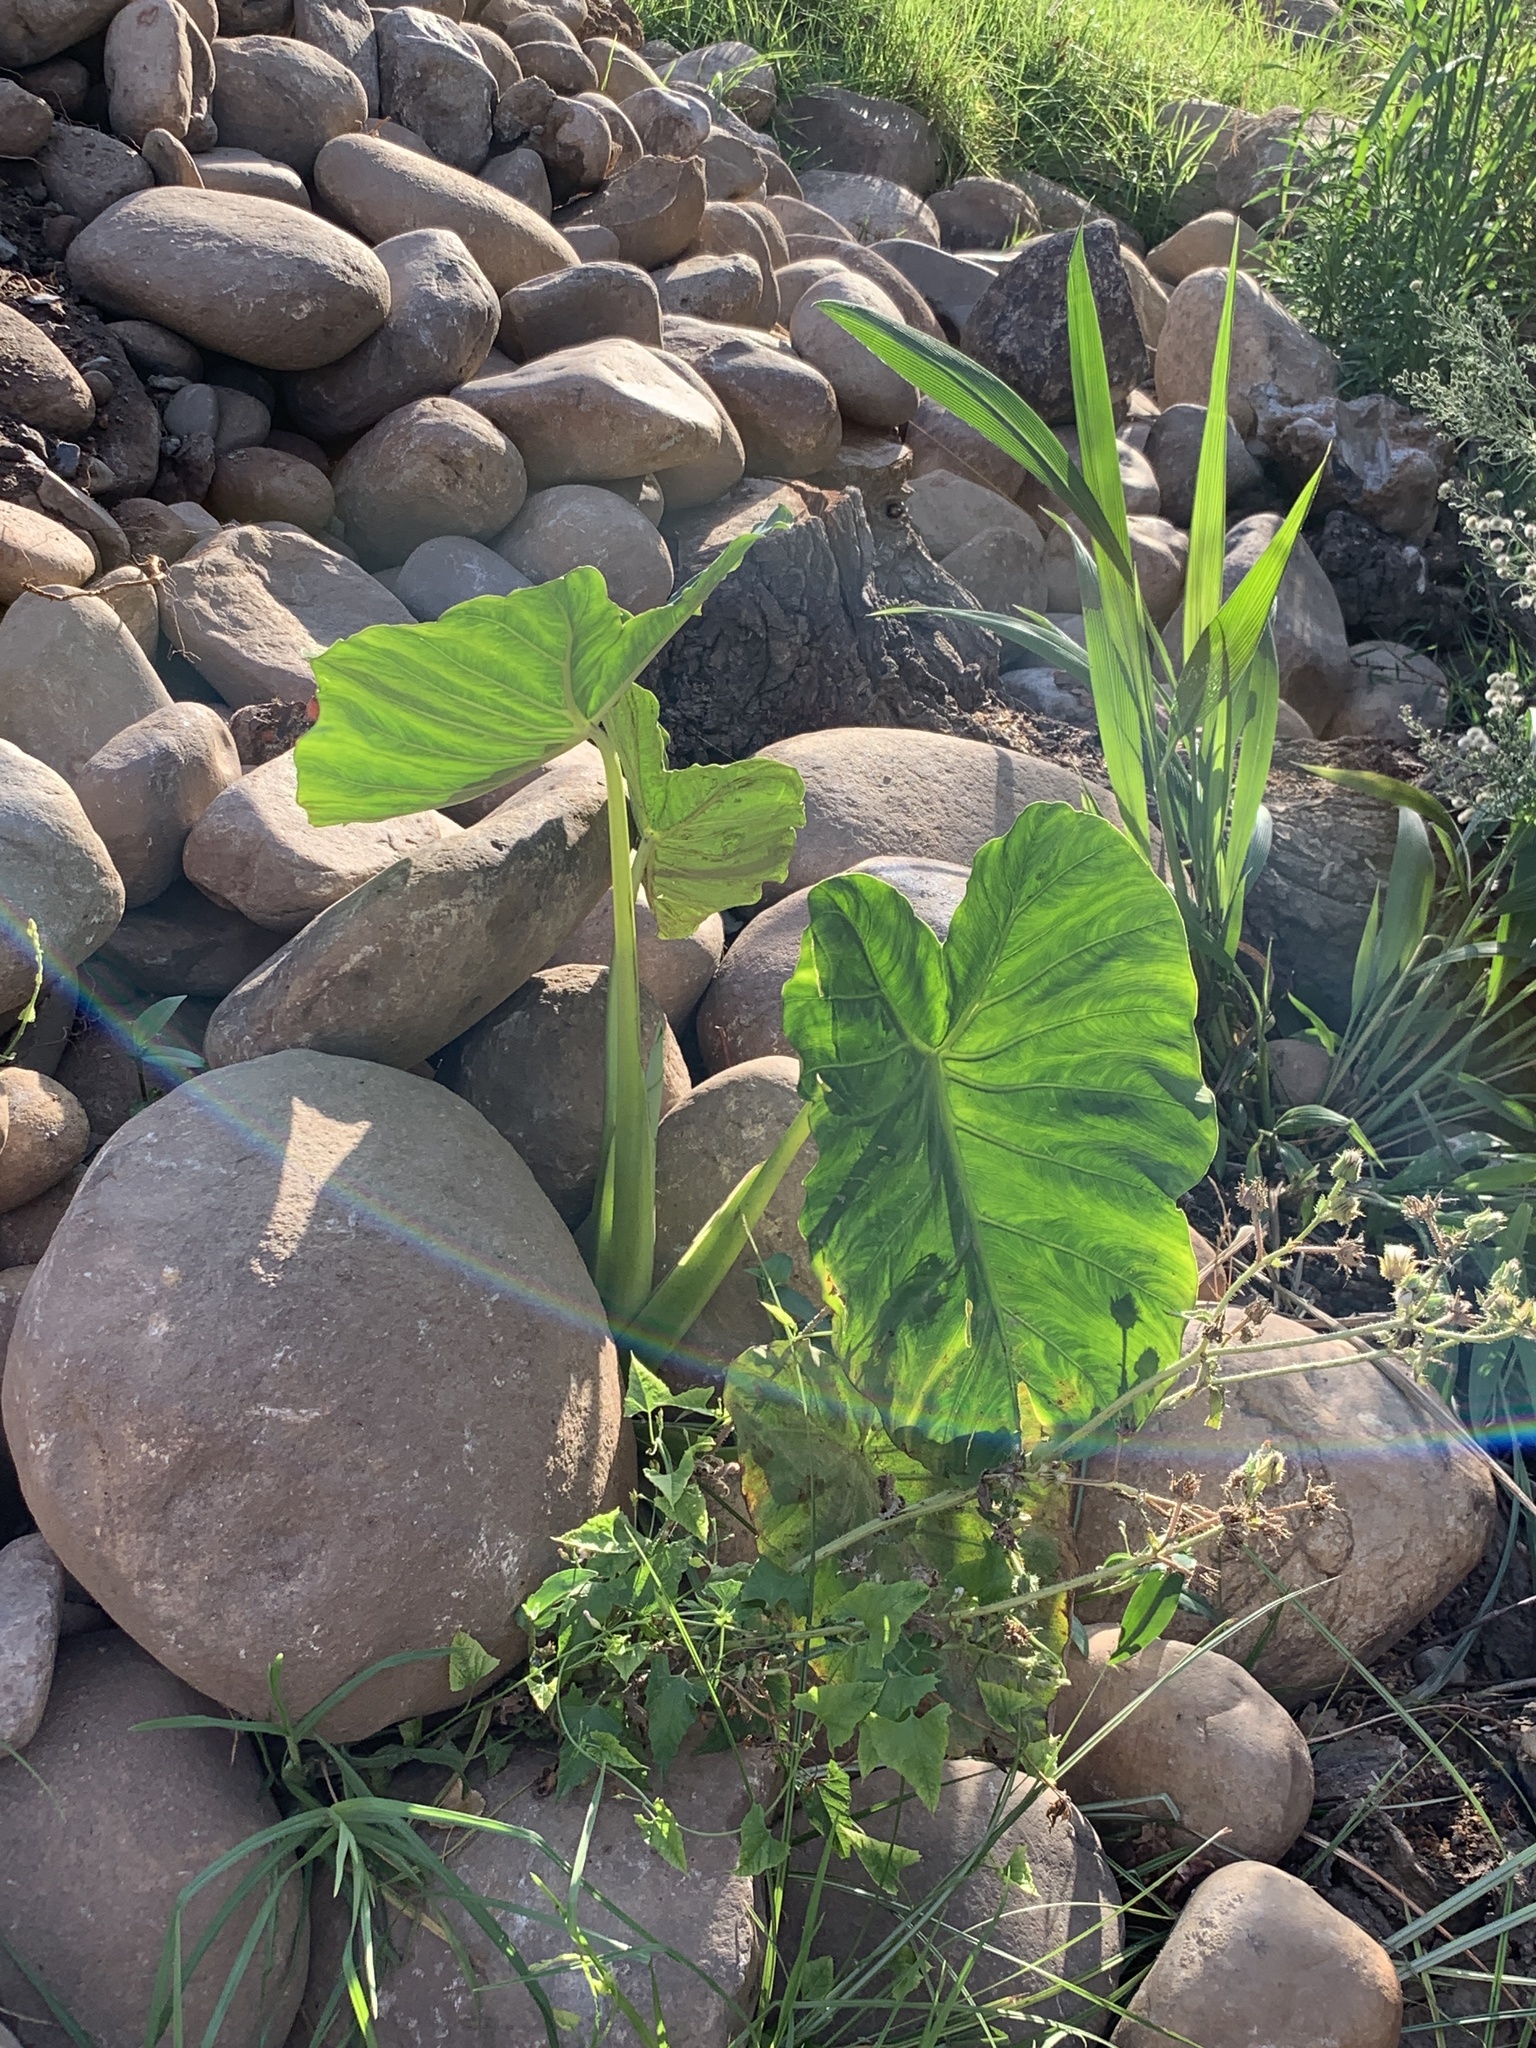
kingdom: Plantae
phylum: Tracheophyta
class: Liliopsida
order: Alismatales
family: Araceae
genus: Colocasia
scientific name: Colocasia esculenta
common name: Taro
